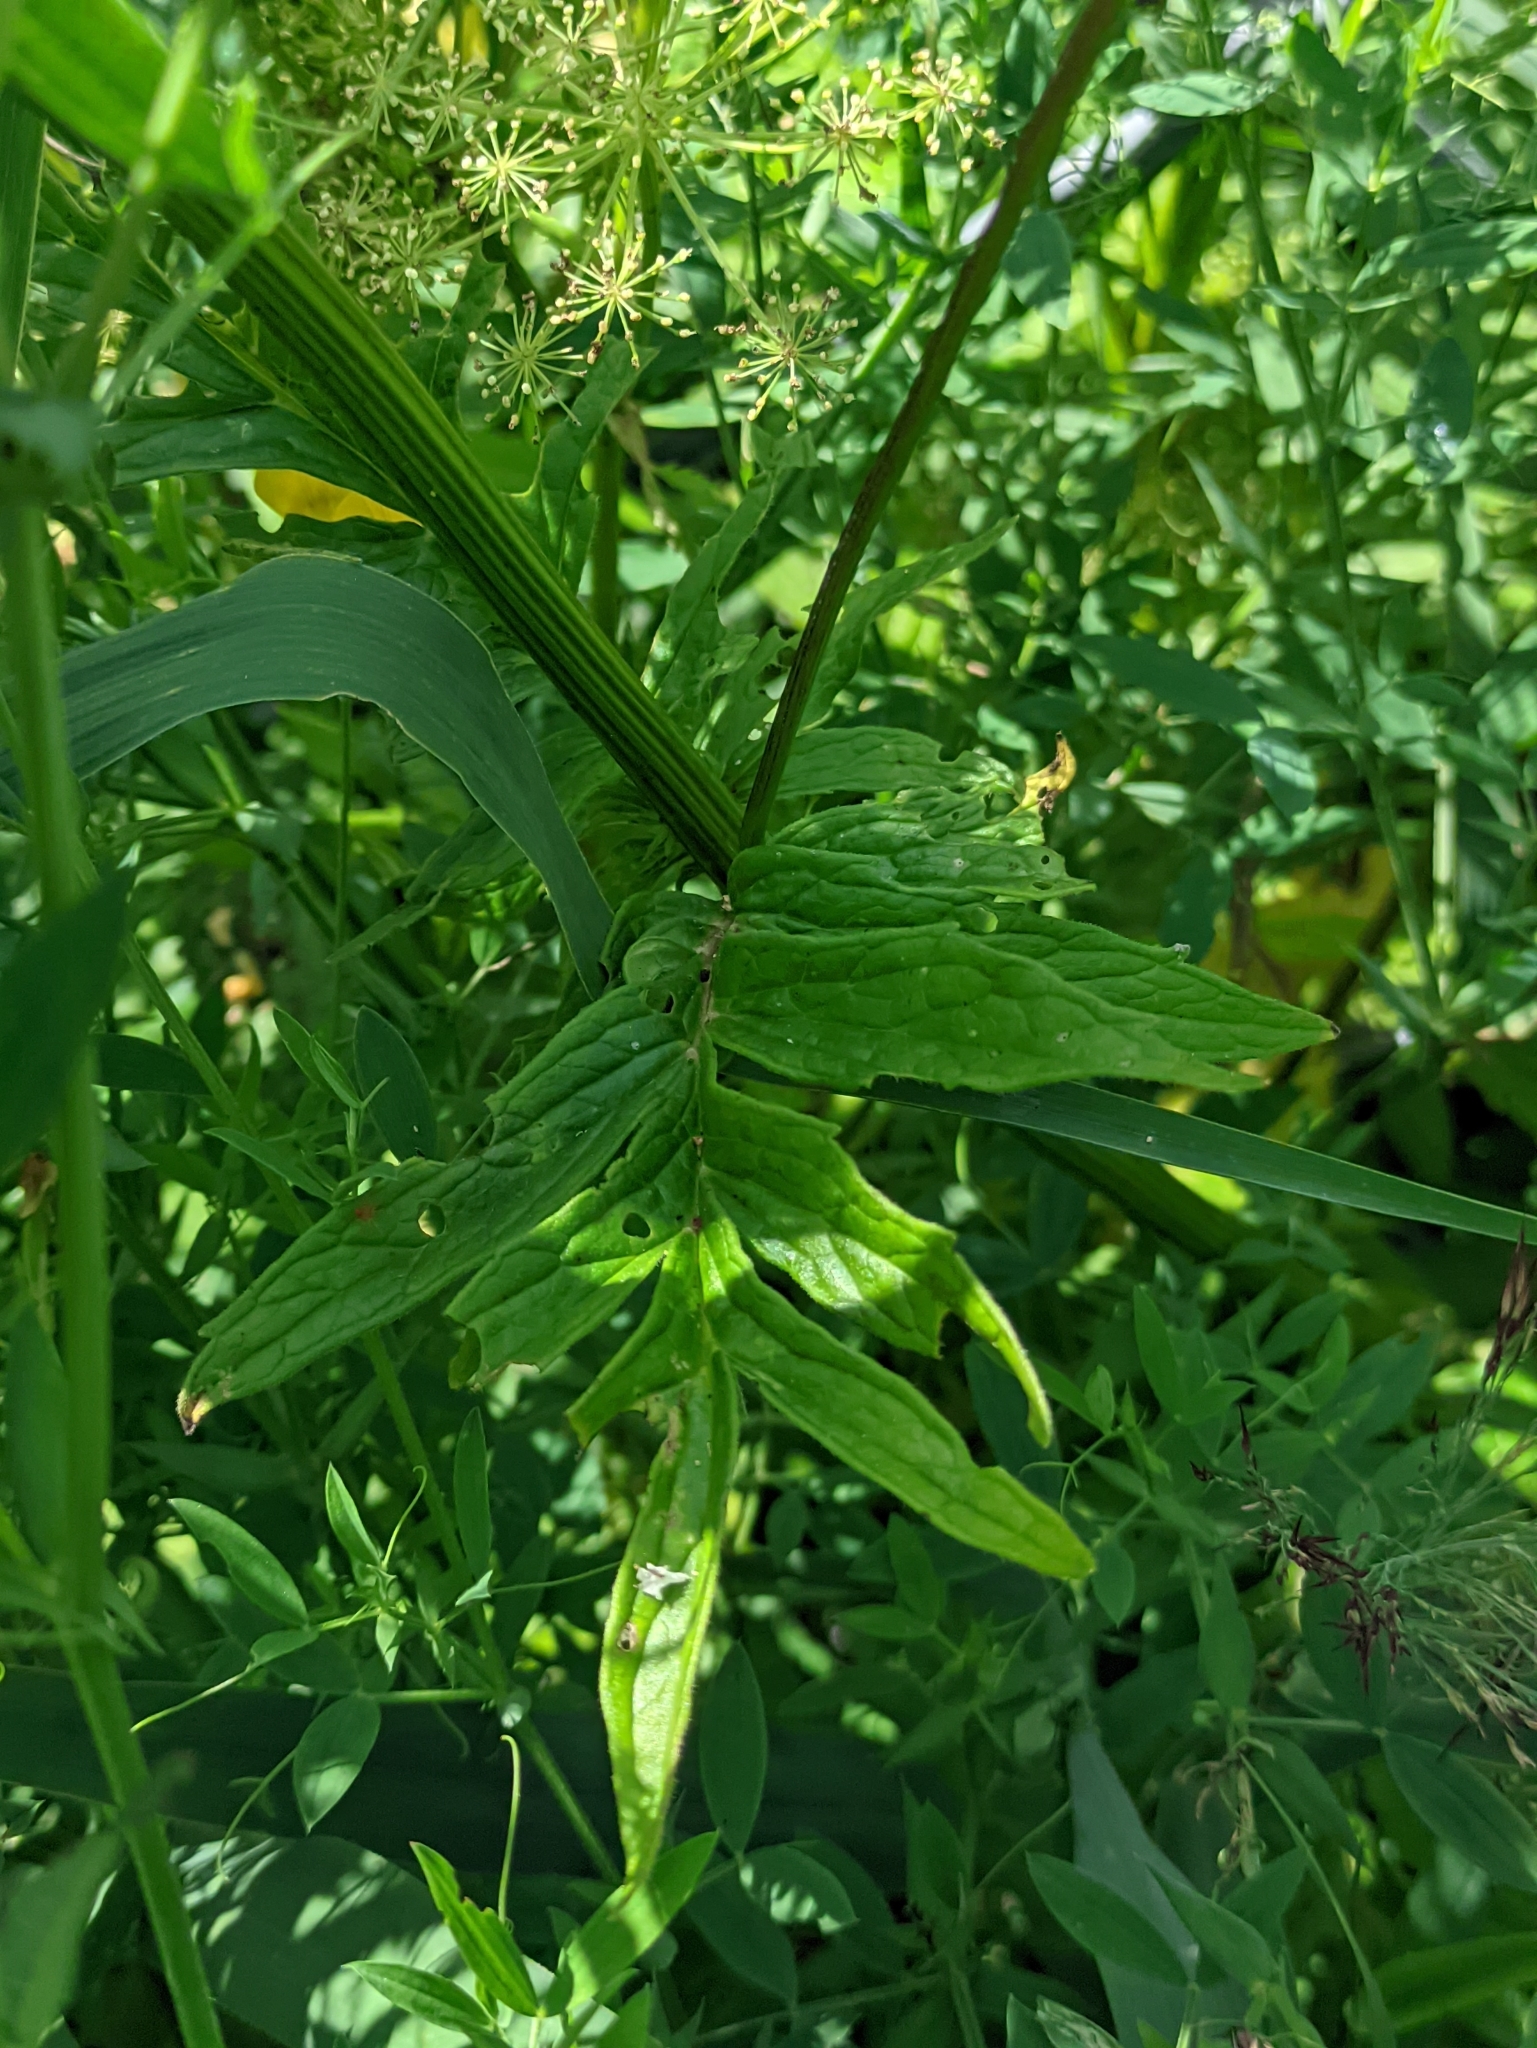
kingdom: Plantae
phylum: Tracheophyta
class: Magnoliopsida
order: Dipsacales
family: Caprifoliaceae
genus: Valeriana
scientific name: Valeriana officinalis
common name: Common valerian
